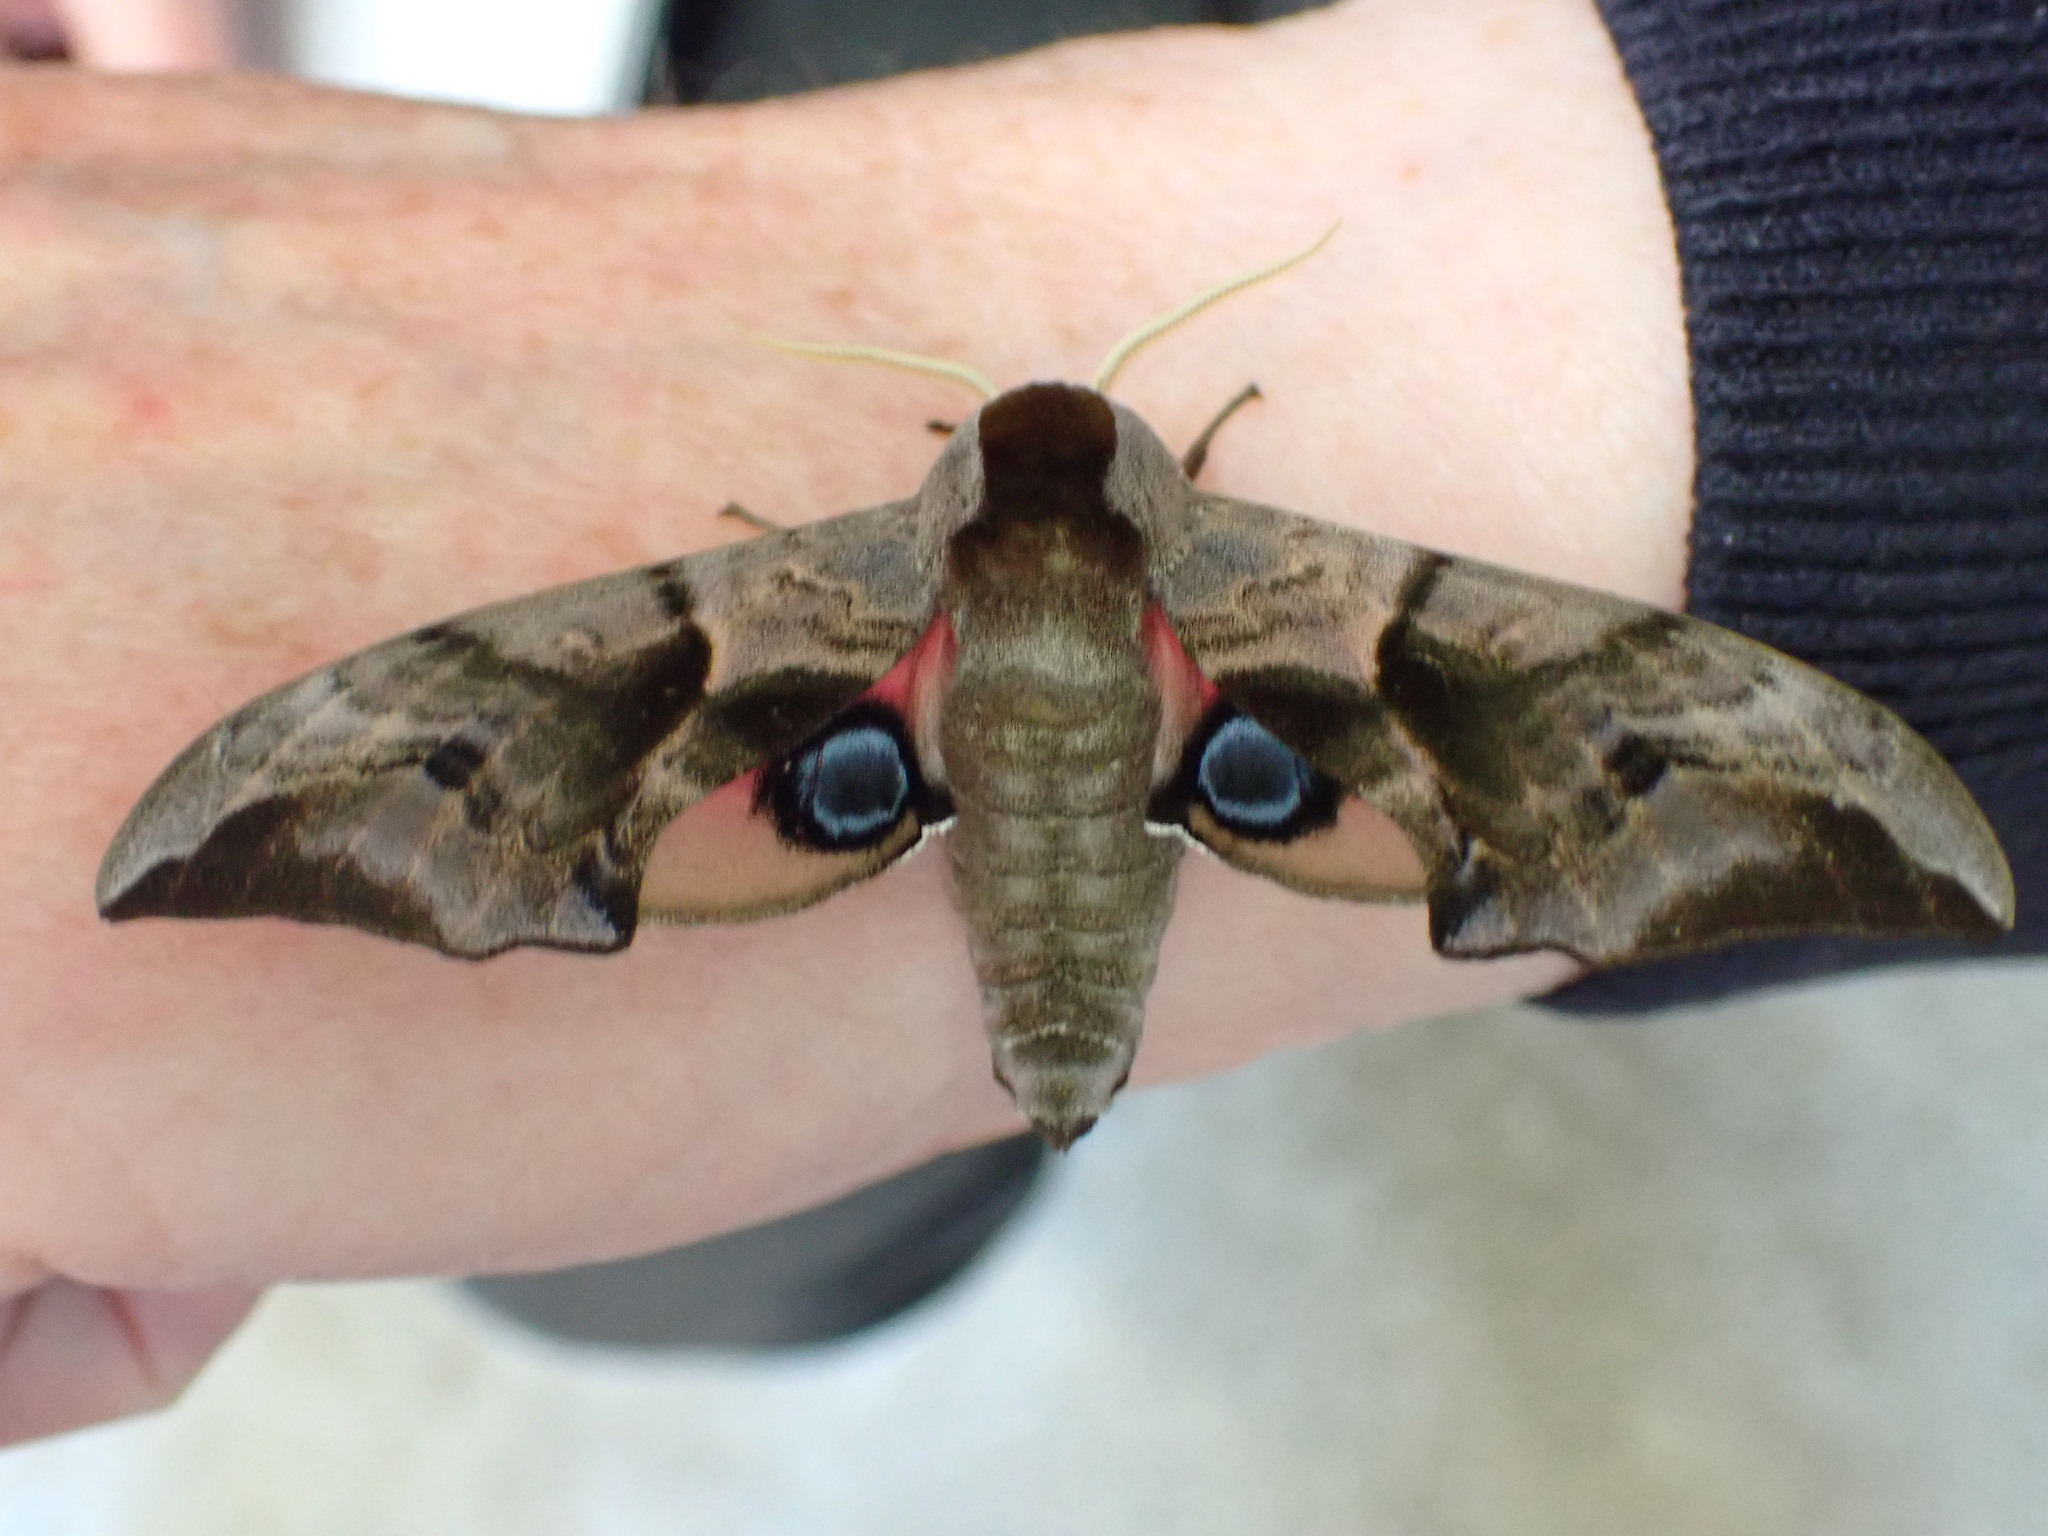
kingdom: Animalia
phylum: Arthropoda
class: Insecta
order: Lepidoptera
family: Sphingidae
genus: Smerinthus
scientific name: Smerinthus ocellata
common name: Eyed hawk-moth
